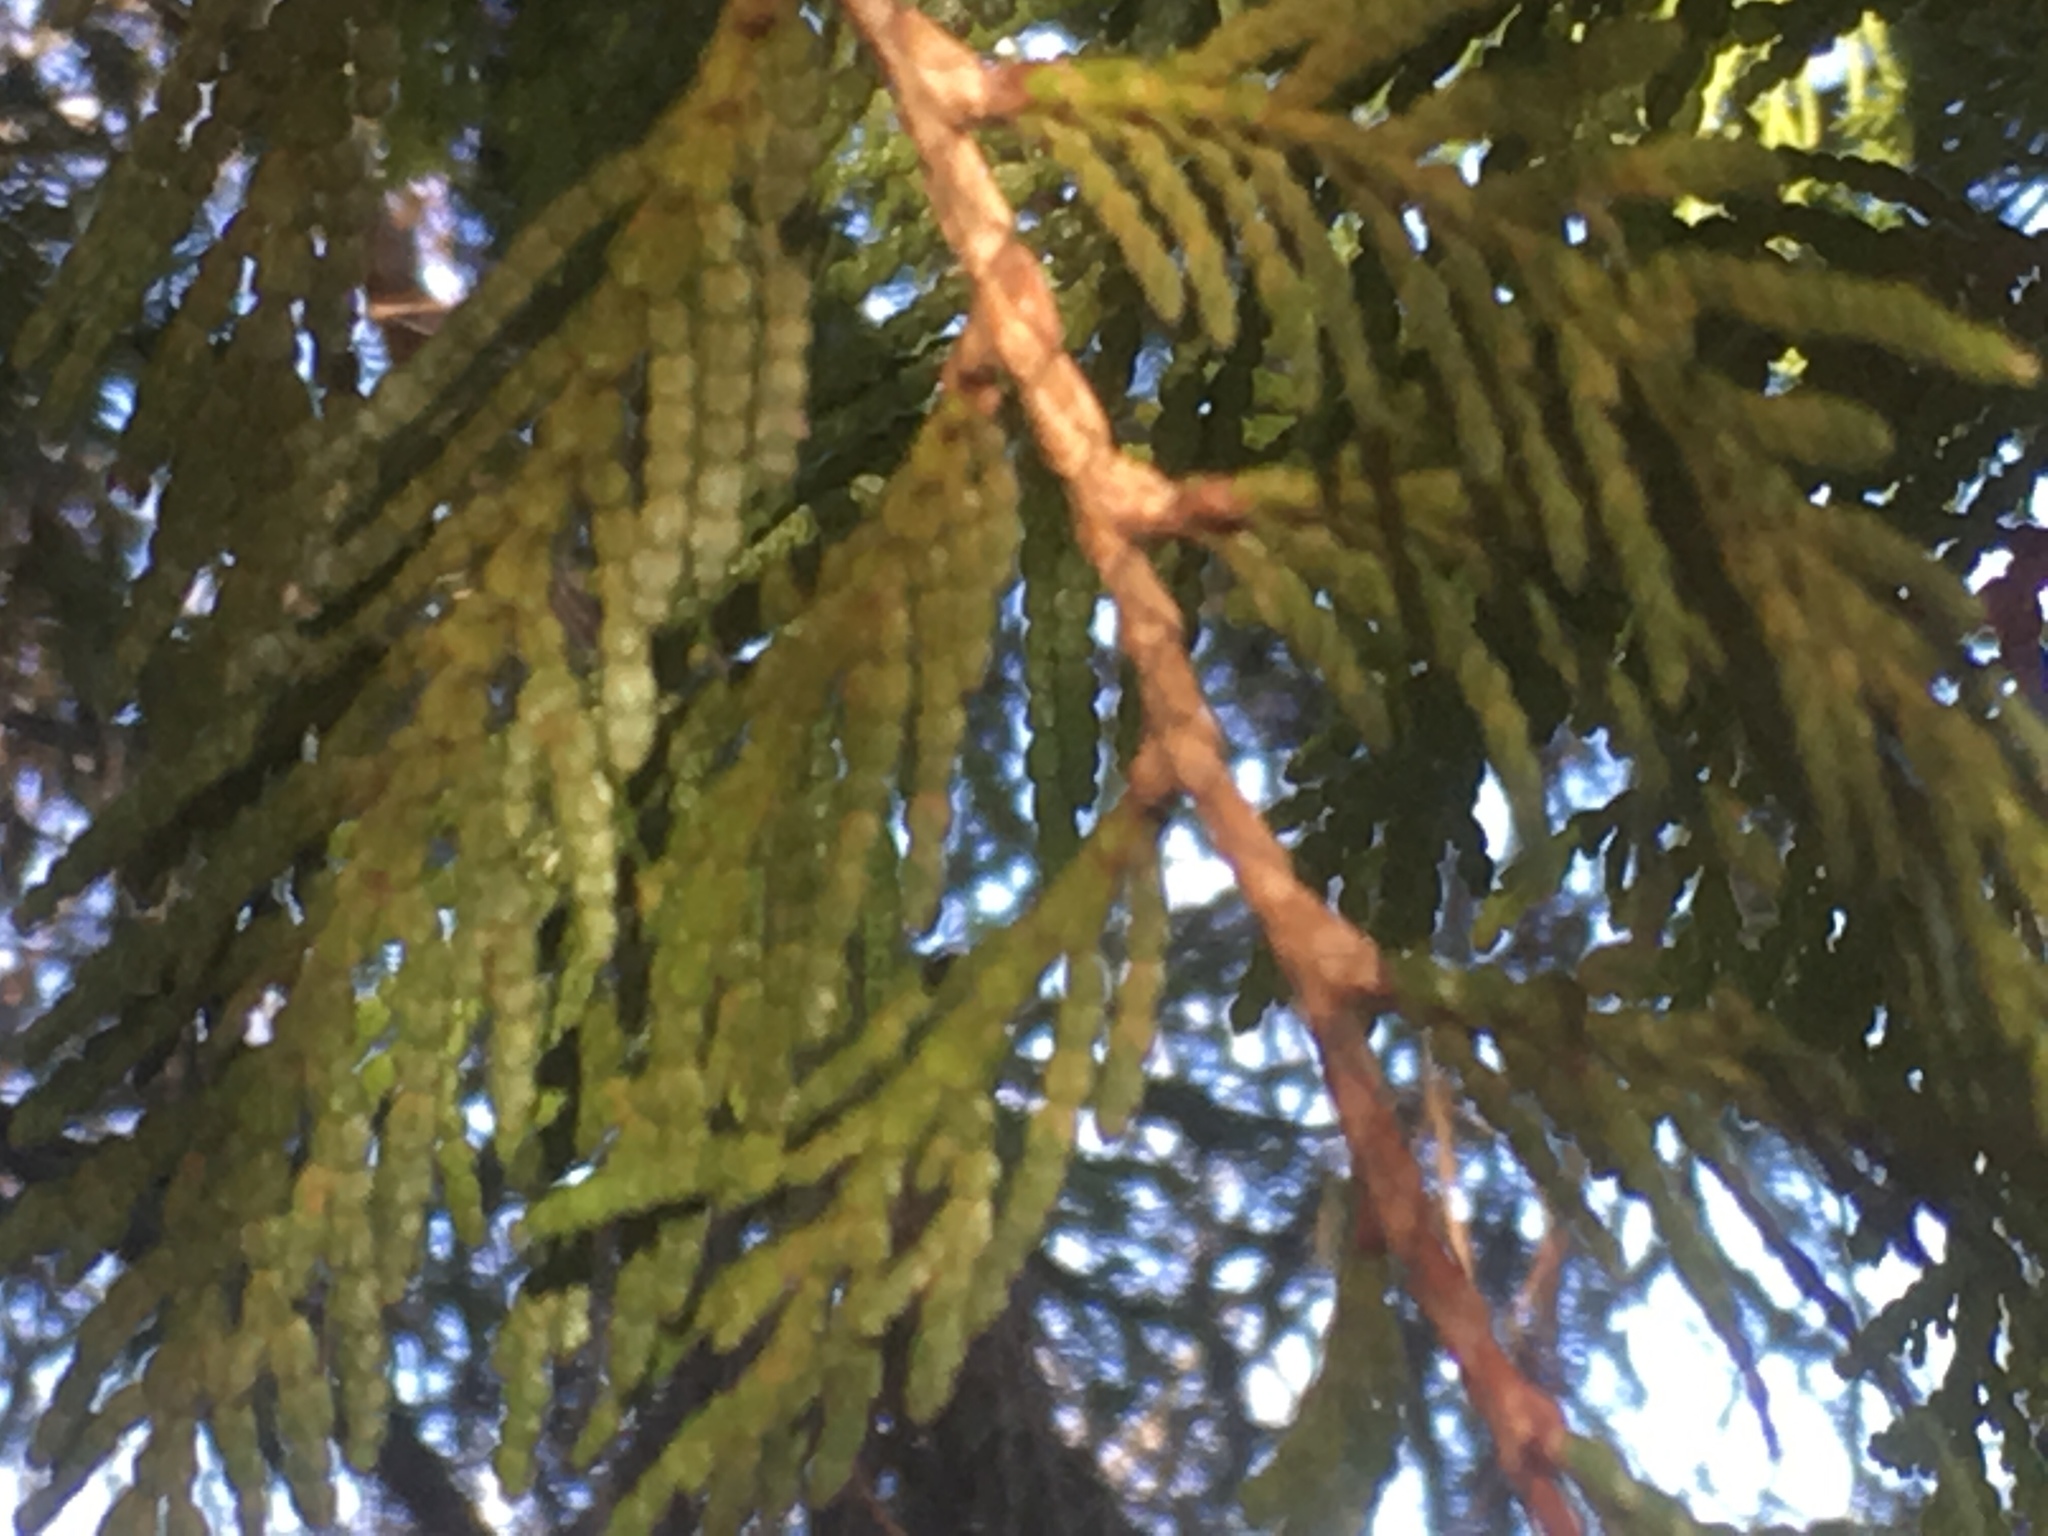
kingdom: Plantae
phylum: Tracheophyta
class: Pinopsida
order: Pinales
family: Cupressaceae
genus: Thuja
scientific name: Thuja occidentalis
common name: Northern white-cedar
